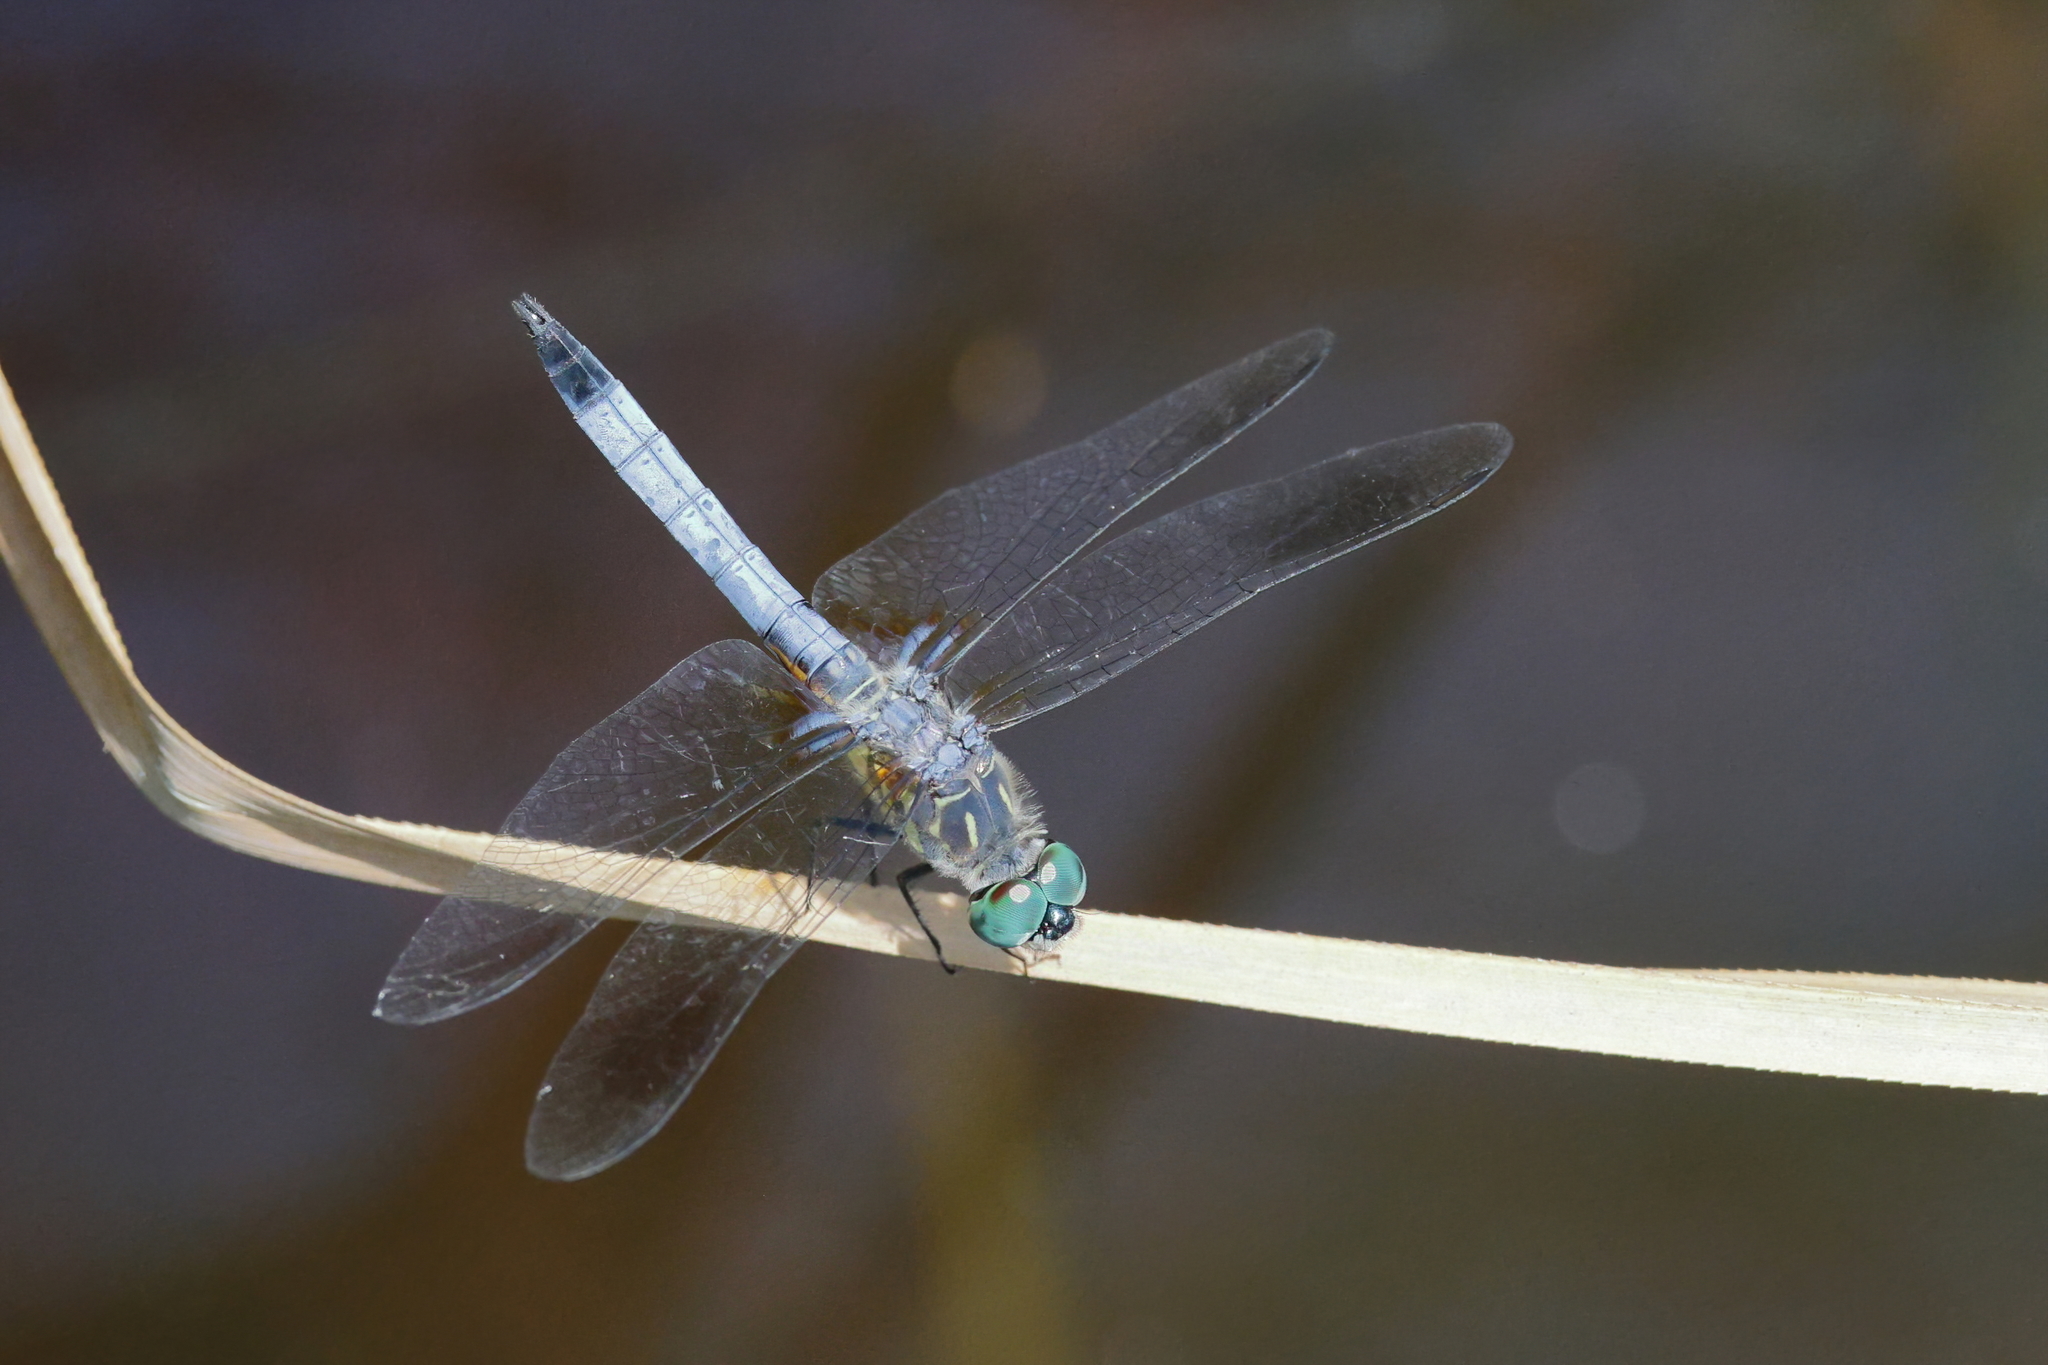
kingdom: Animalia
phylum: Arthropoda
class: Insecta
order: Odonata
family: Libellulidae
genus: Pachydiplax
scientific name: Pachydiplax longipennis
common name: Blue dasher
